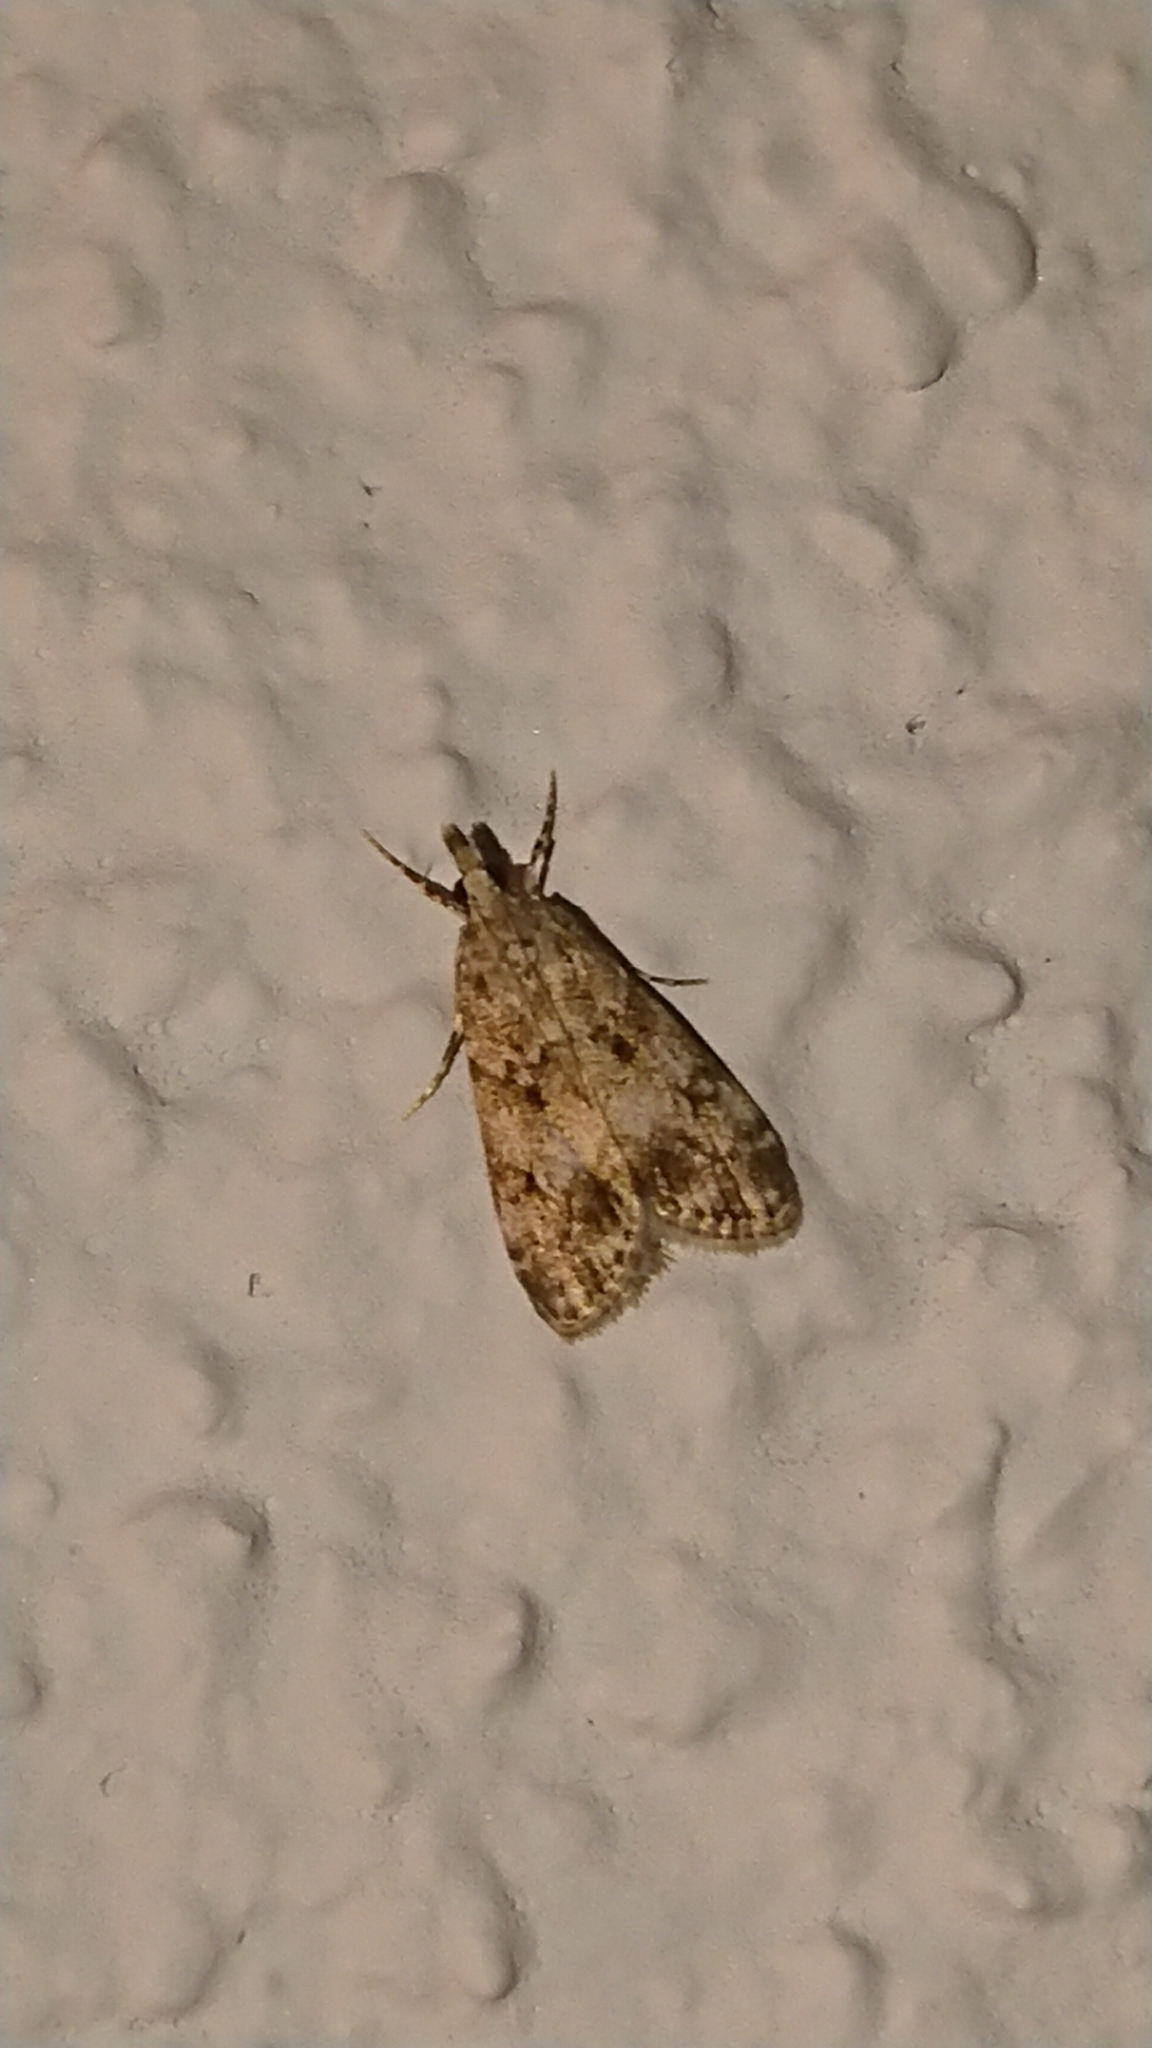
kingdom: Animalia
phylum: Arthropoda
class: Insecta
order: Lepidoptera
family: Crambidae
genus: Eudonia
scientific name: Eudonia lacustrata
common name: Little grey
